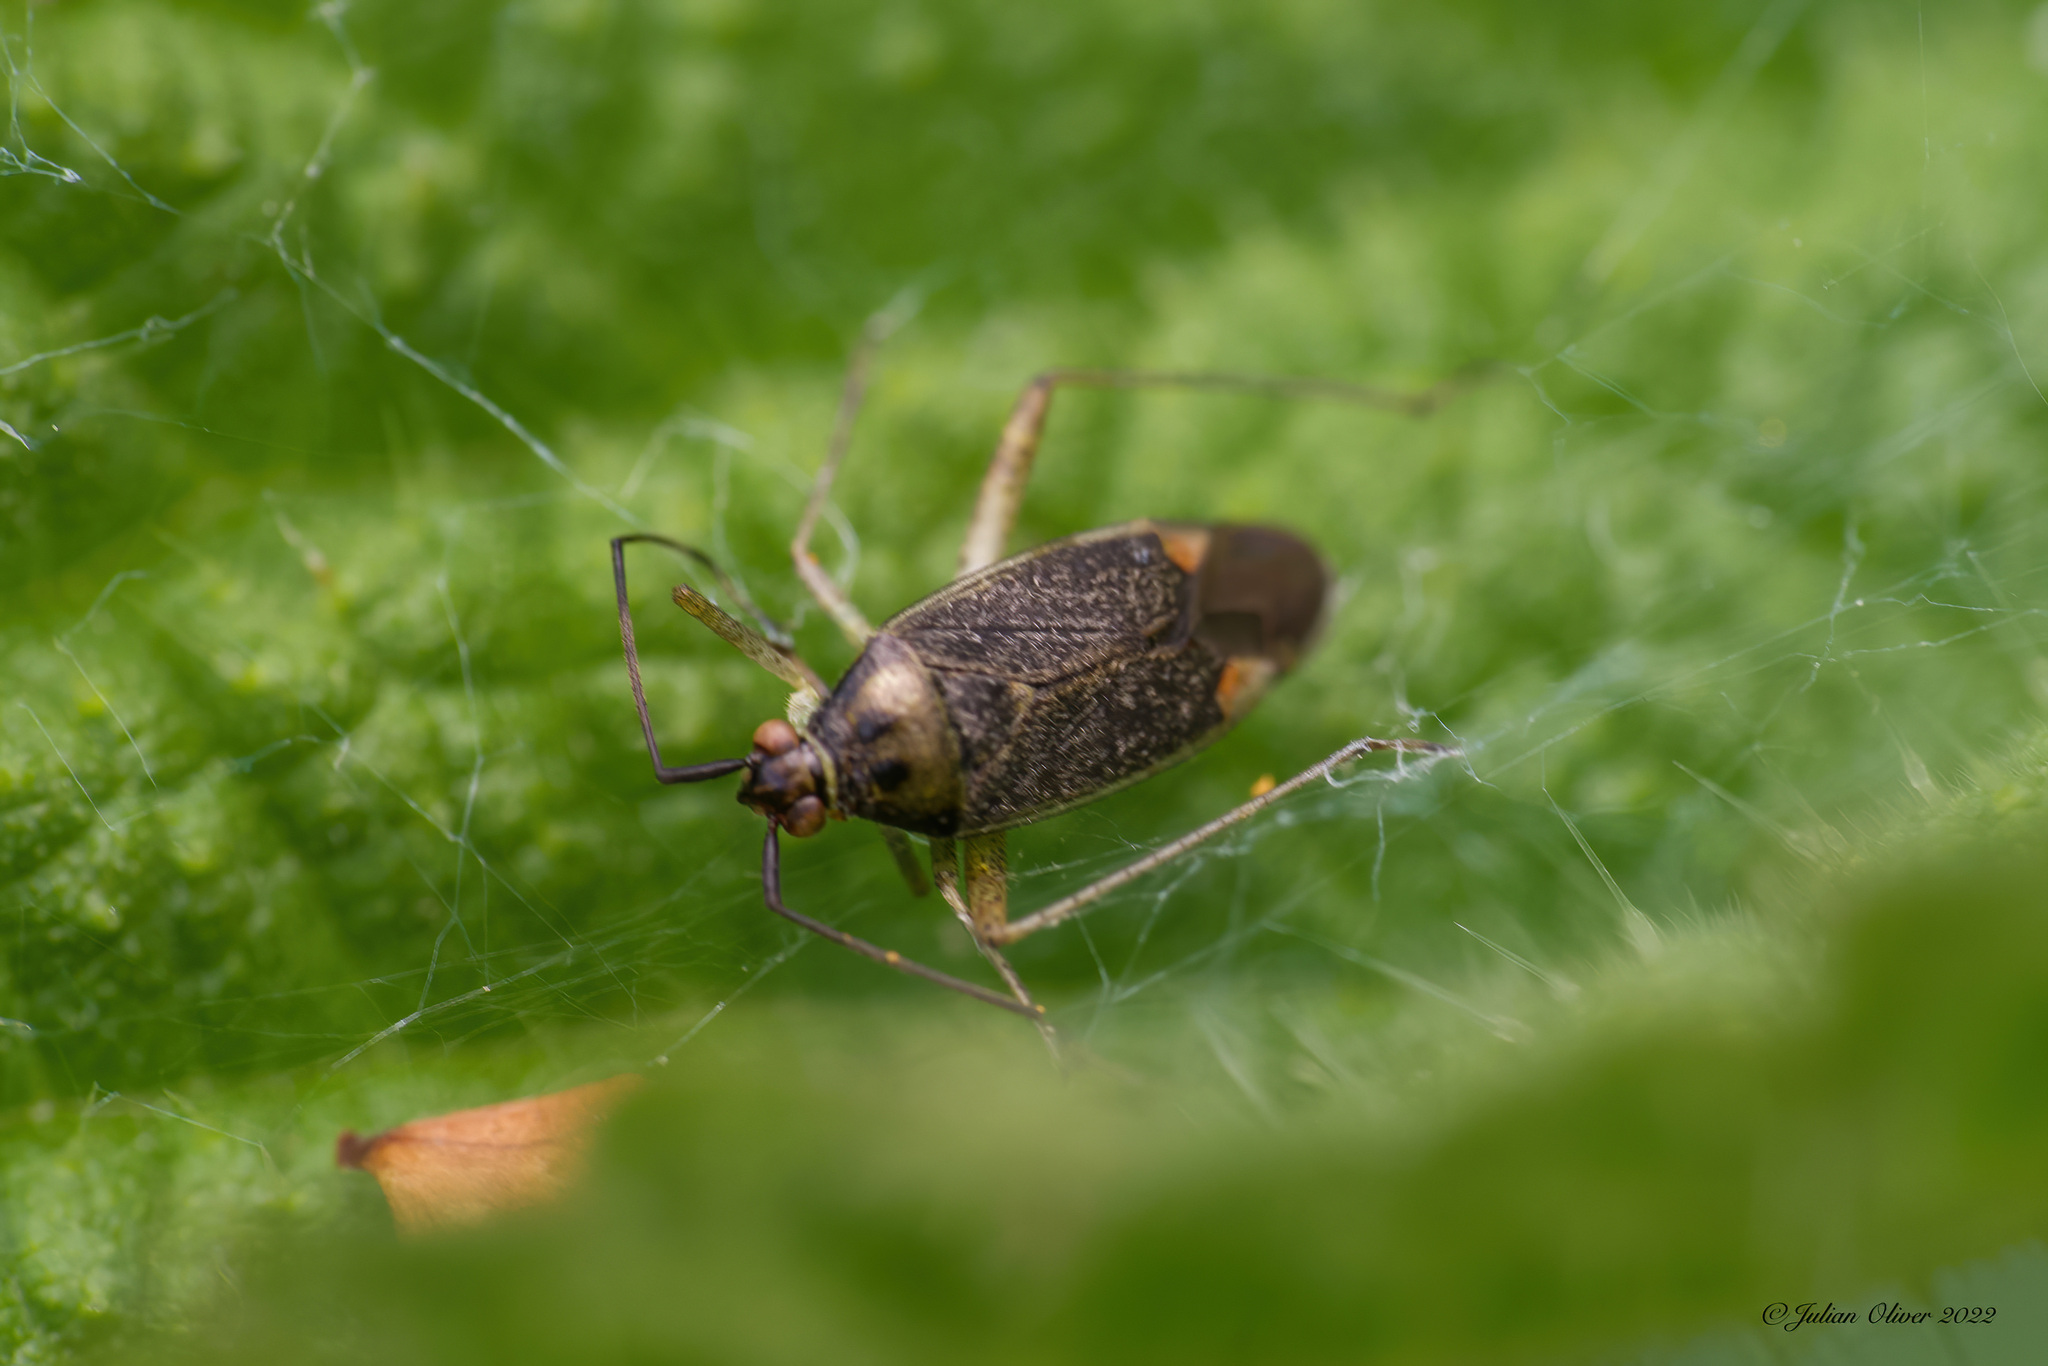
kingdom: Animalia
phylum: Arthropoda
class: Insecta
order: Hemiptera
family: Miridae
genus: Closterotomus
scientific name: Closterotomus trivialis
